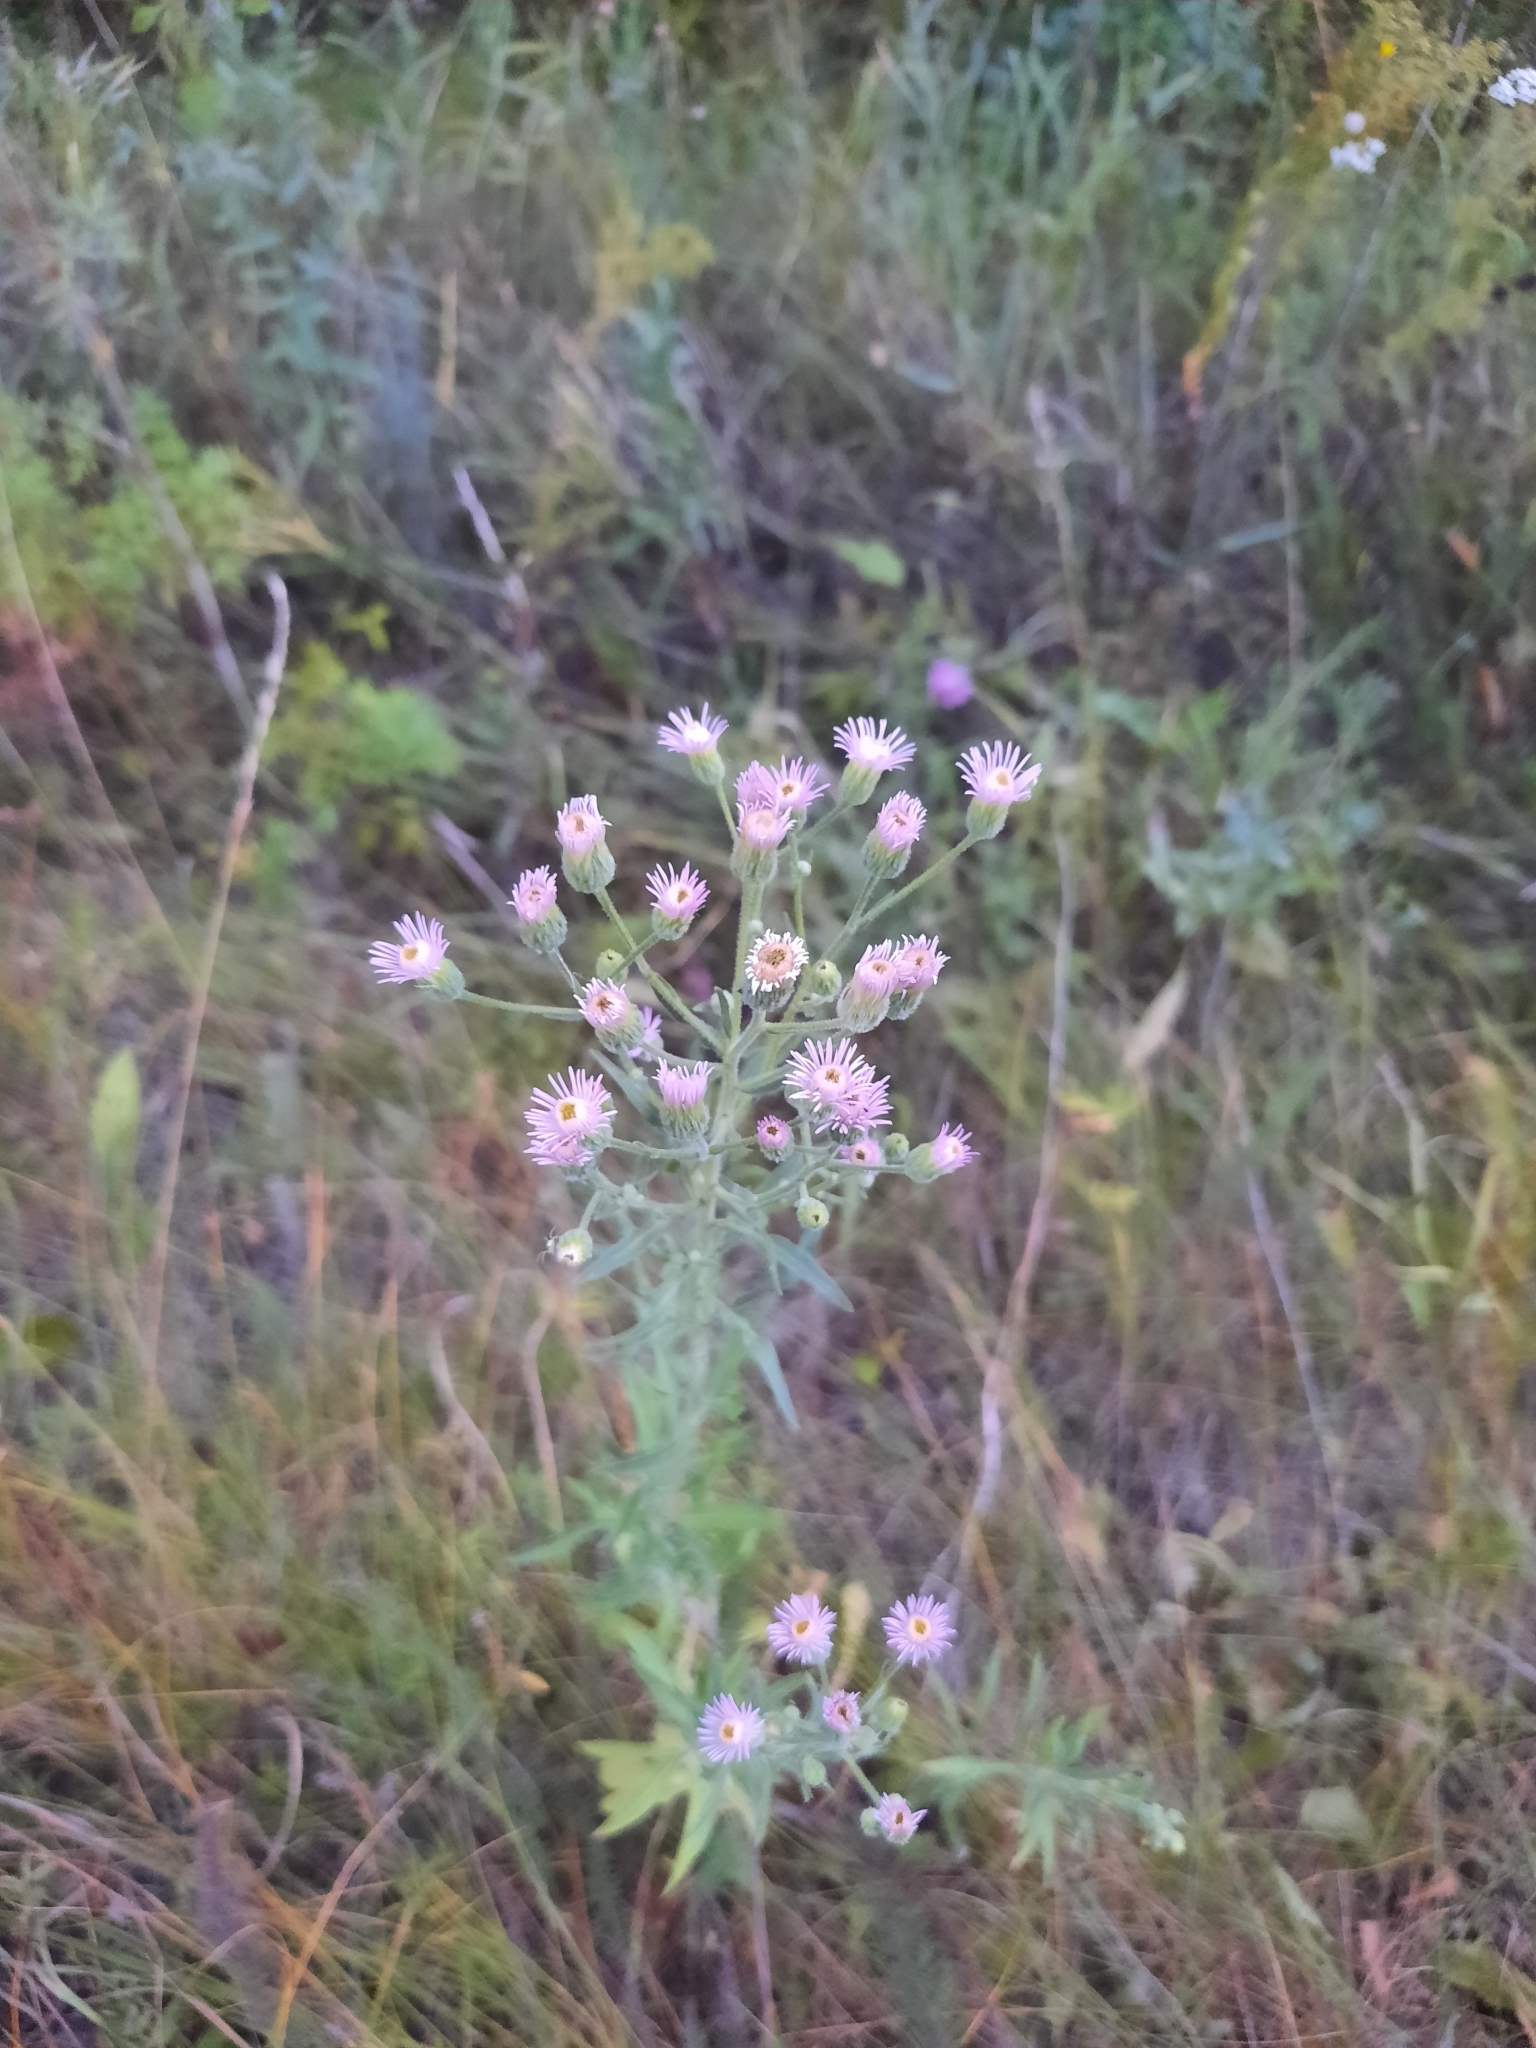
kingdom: Plantae
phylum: Tracheophyta
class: Magnoliopsida
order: Asterales
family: Asteraceae
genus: Erigeron
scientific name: Erigeron acris
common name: Blue fleabane
